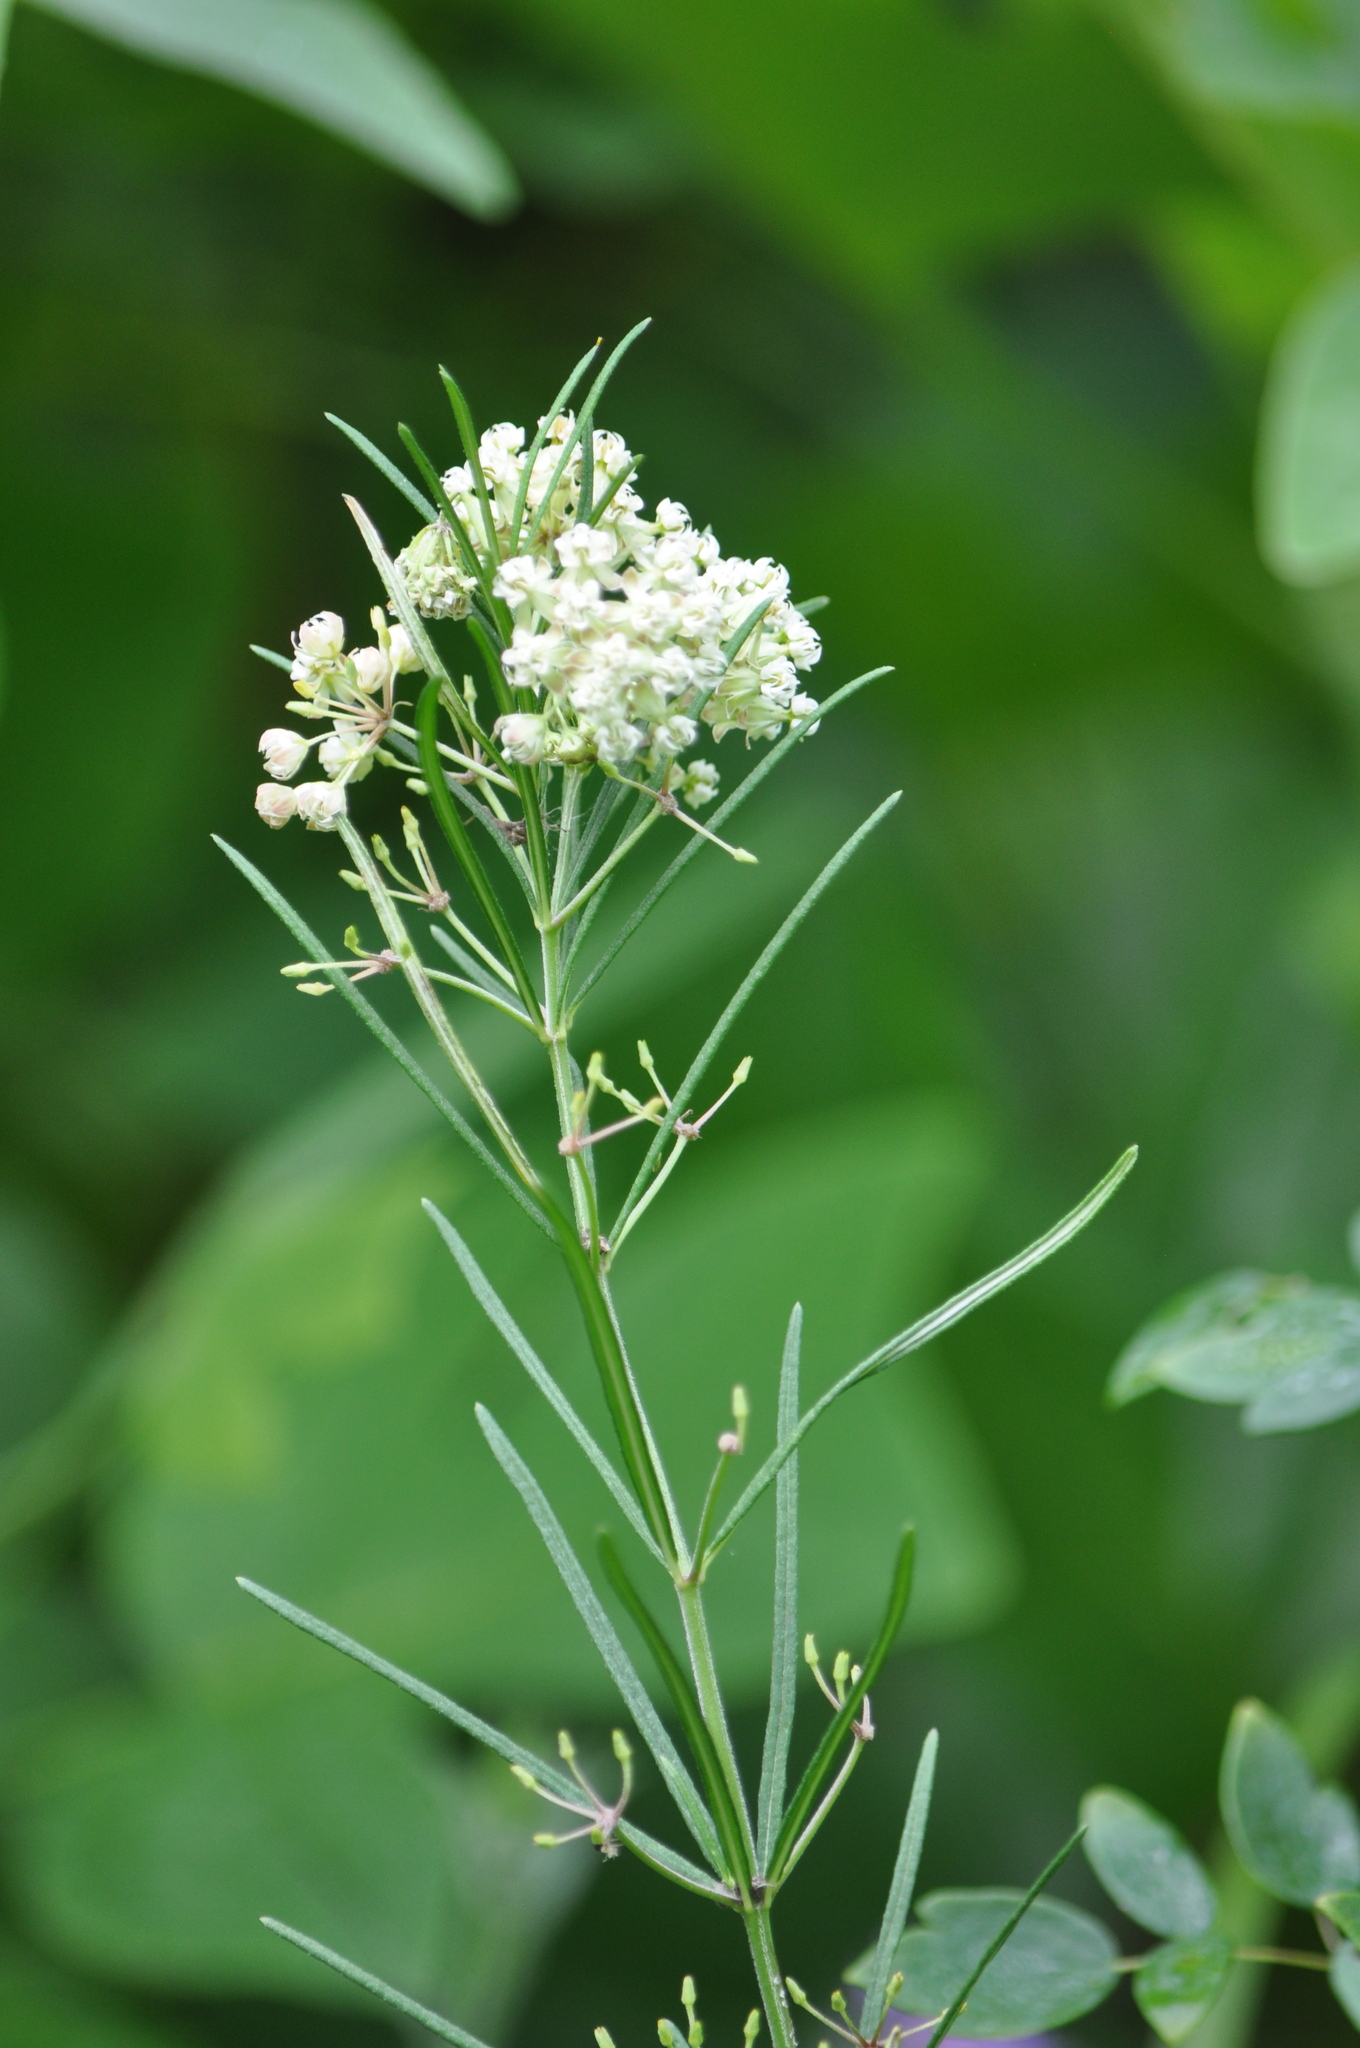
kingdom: Plantae
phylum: Tracheophyta
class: Magnoliopsida
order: Gentianales
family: Apocynaceae
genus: Asclepias
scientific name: Asclepias verticillata
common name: Eastern whorled milkweed
